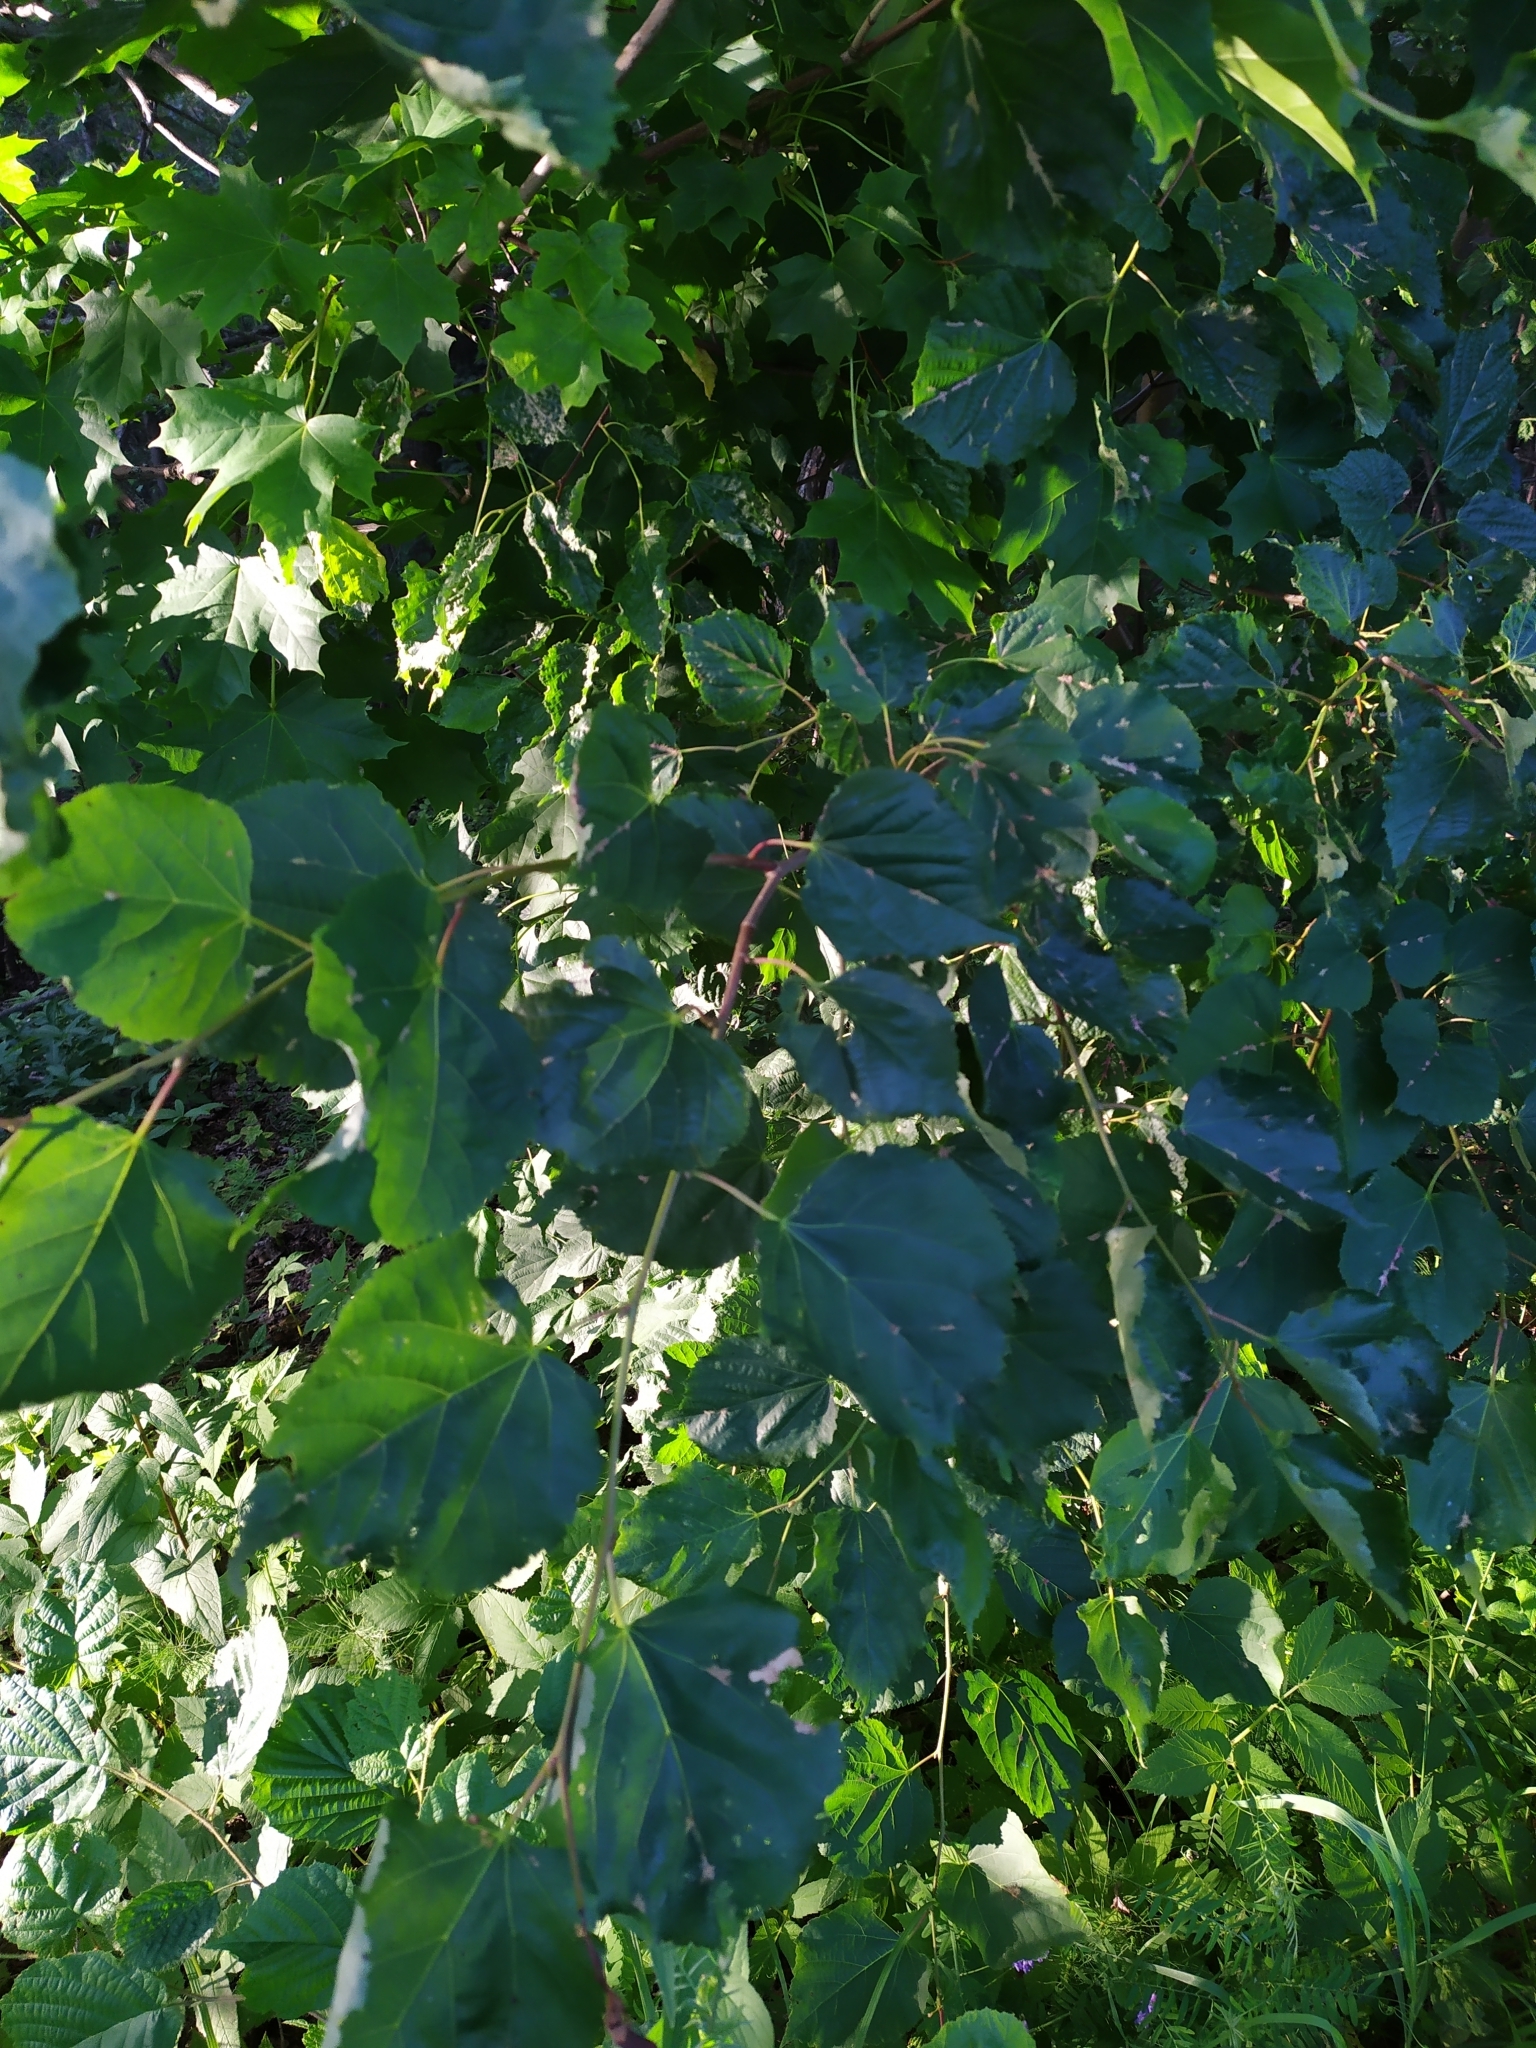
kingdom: Plantae
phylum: Tracheophyta
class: Magnoliopsida
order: Malvales
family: Malvaceae
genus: Tilia
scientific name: Tilia cordata
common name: Small-leaved lime
